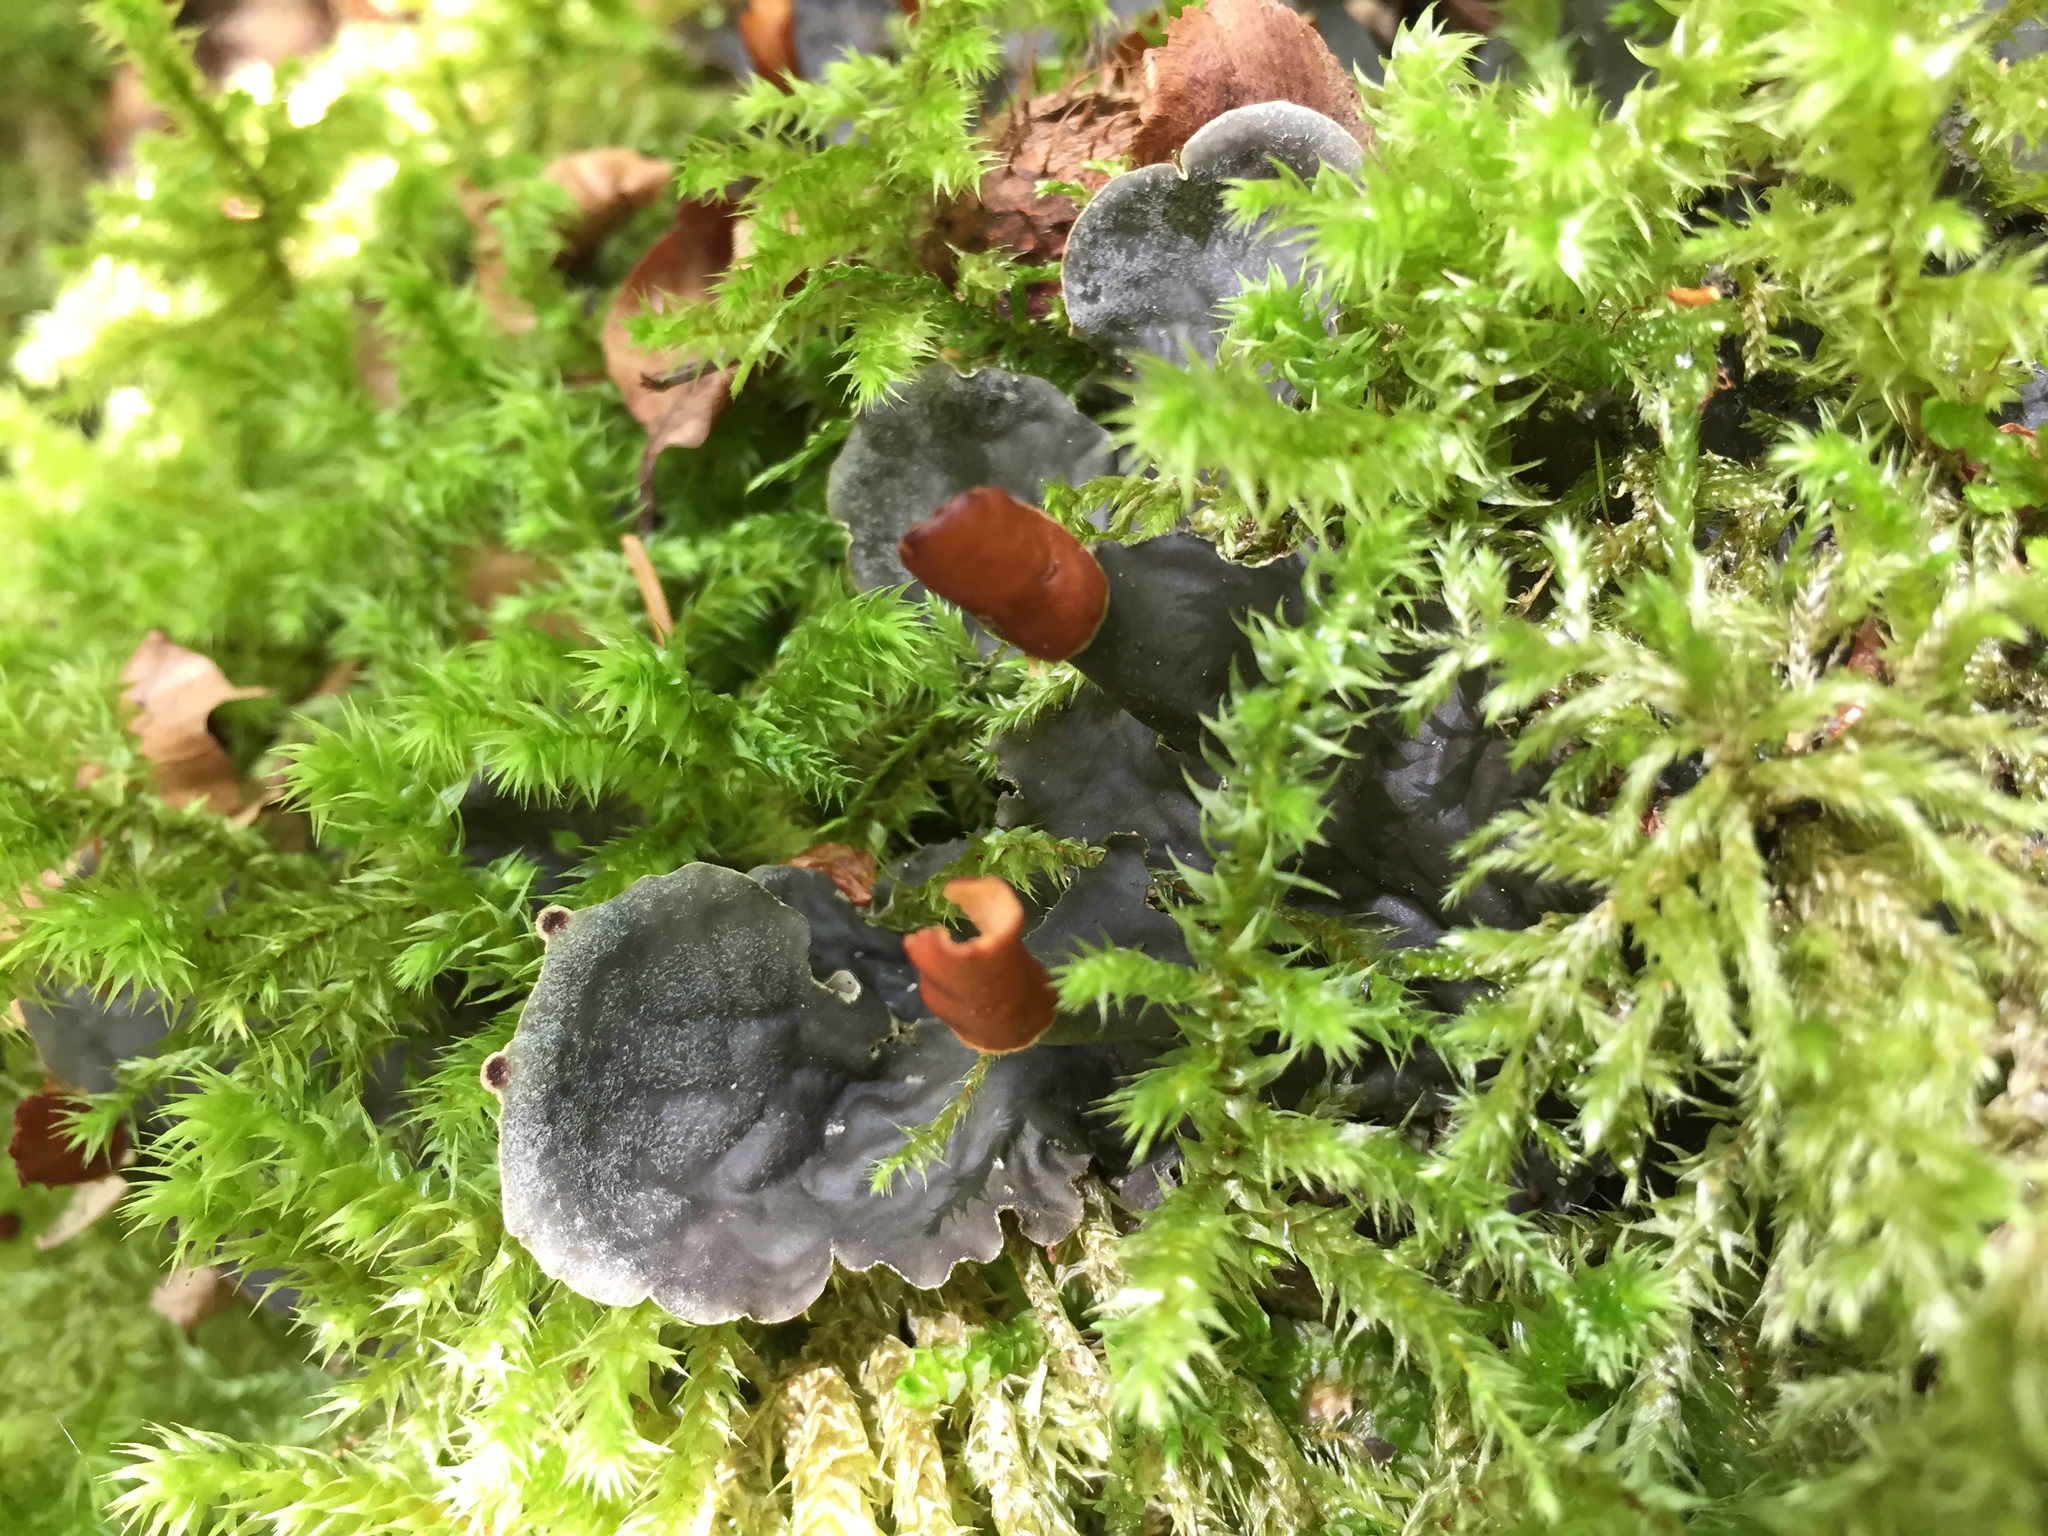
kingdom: Fungi
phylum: Ascomycota
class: Lecanoromycetes
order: Peltigerales
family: Peltigeraceae
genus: Peltigera
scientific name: Peltigera
